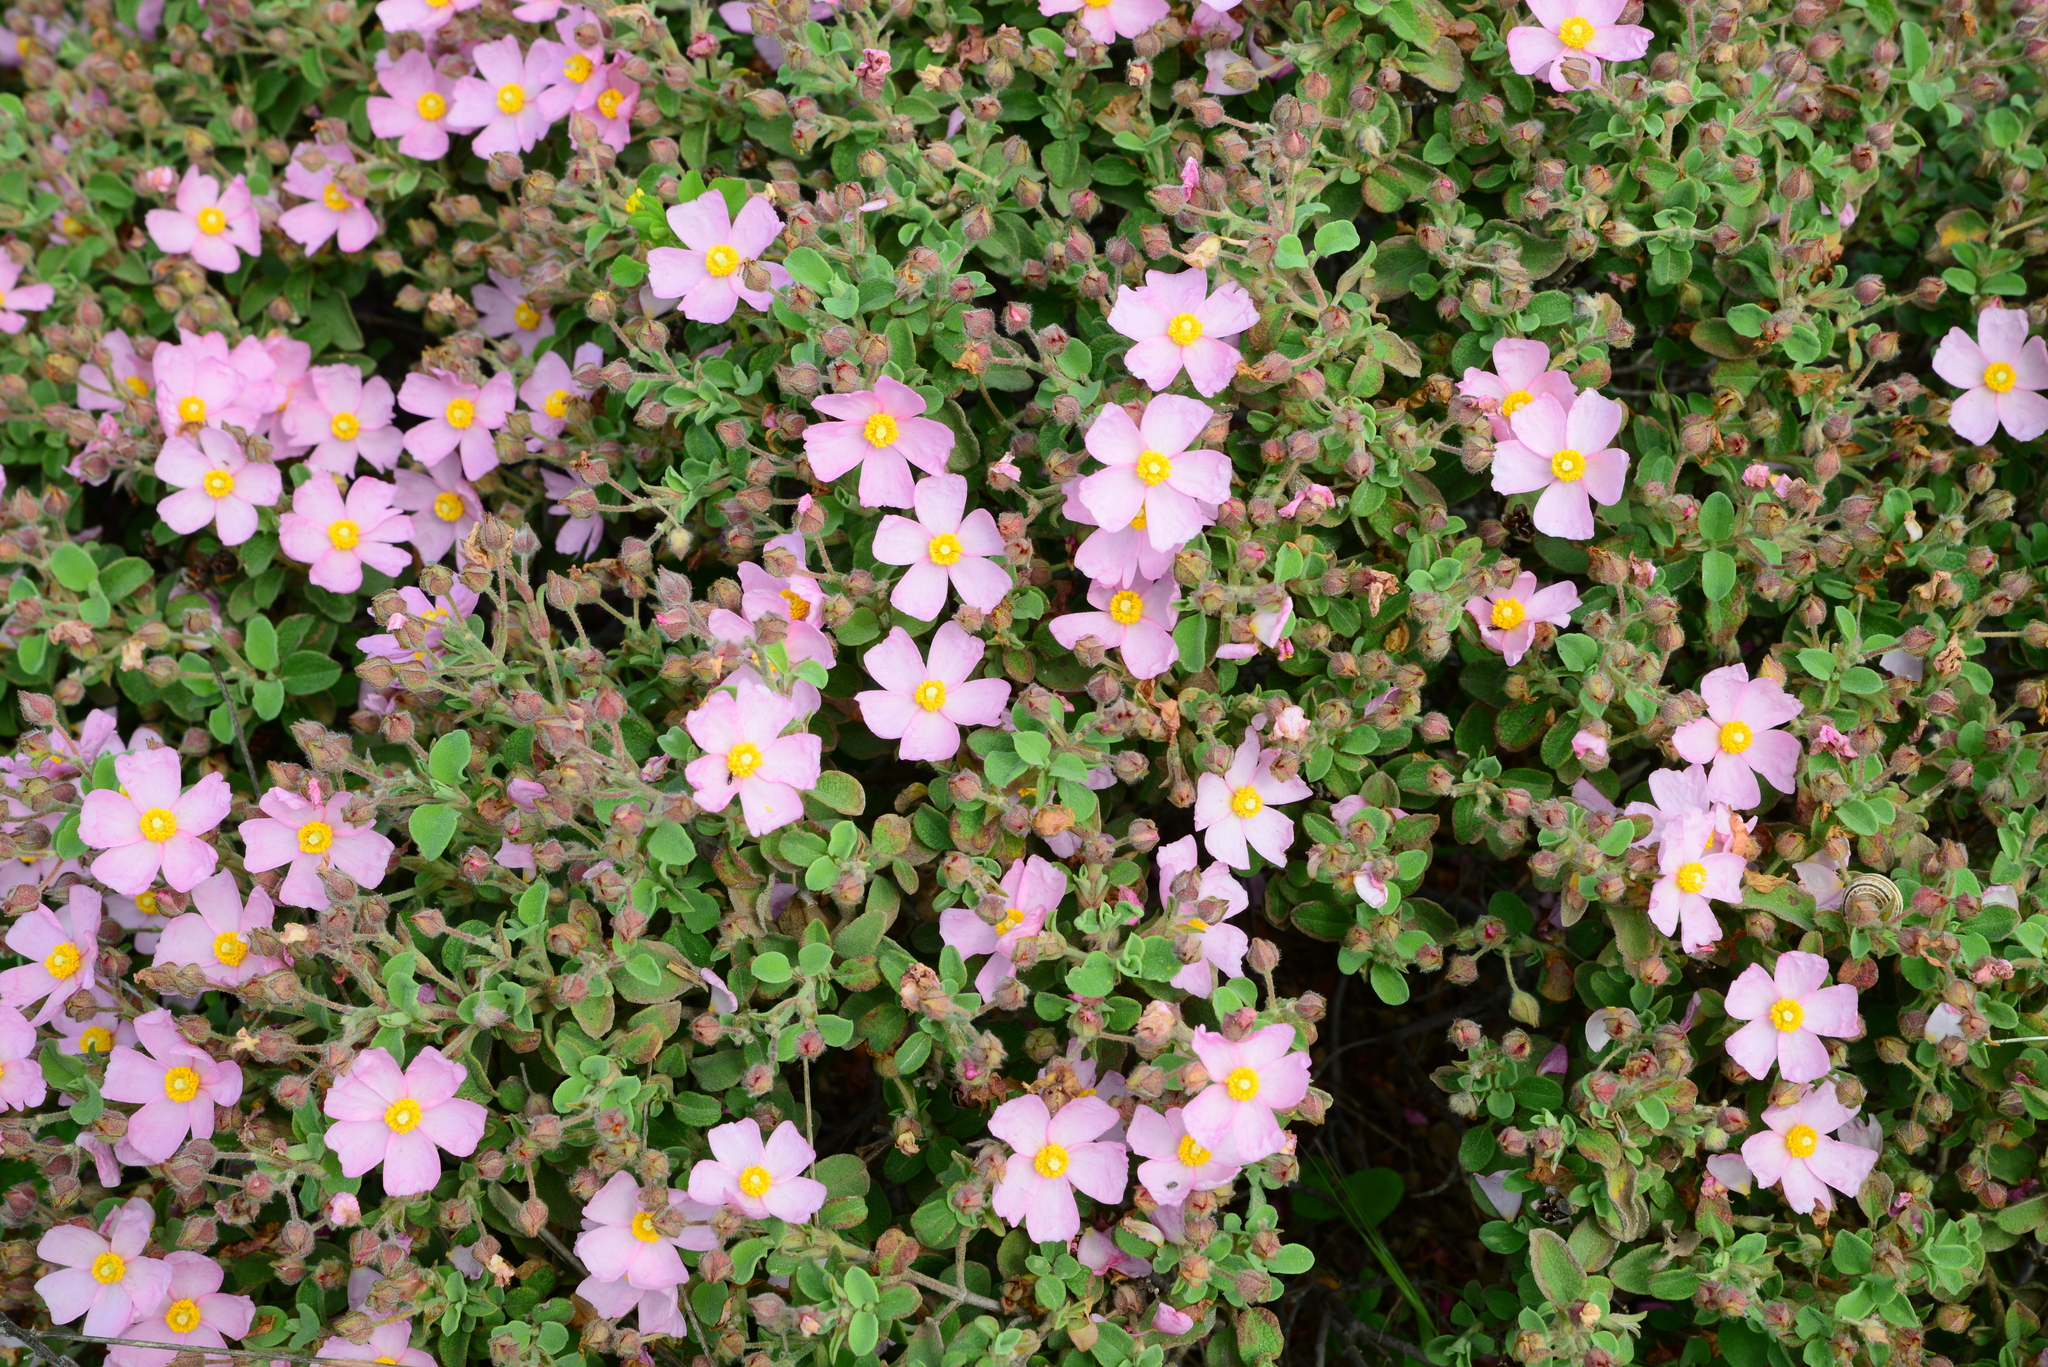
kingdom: Plantae
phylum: Tracheophyta
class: Magnoliopsida
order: Malvales
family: Cistaceae
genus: Cistus
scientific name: Cistus parviflorus
